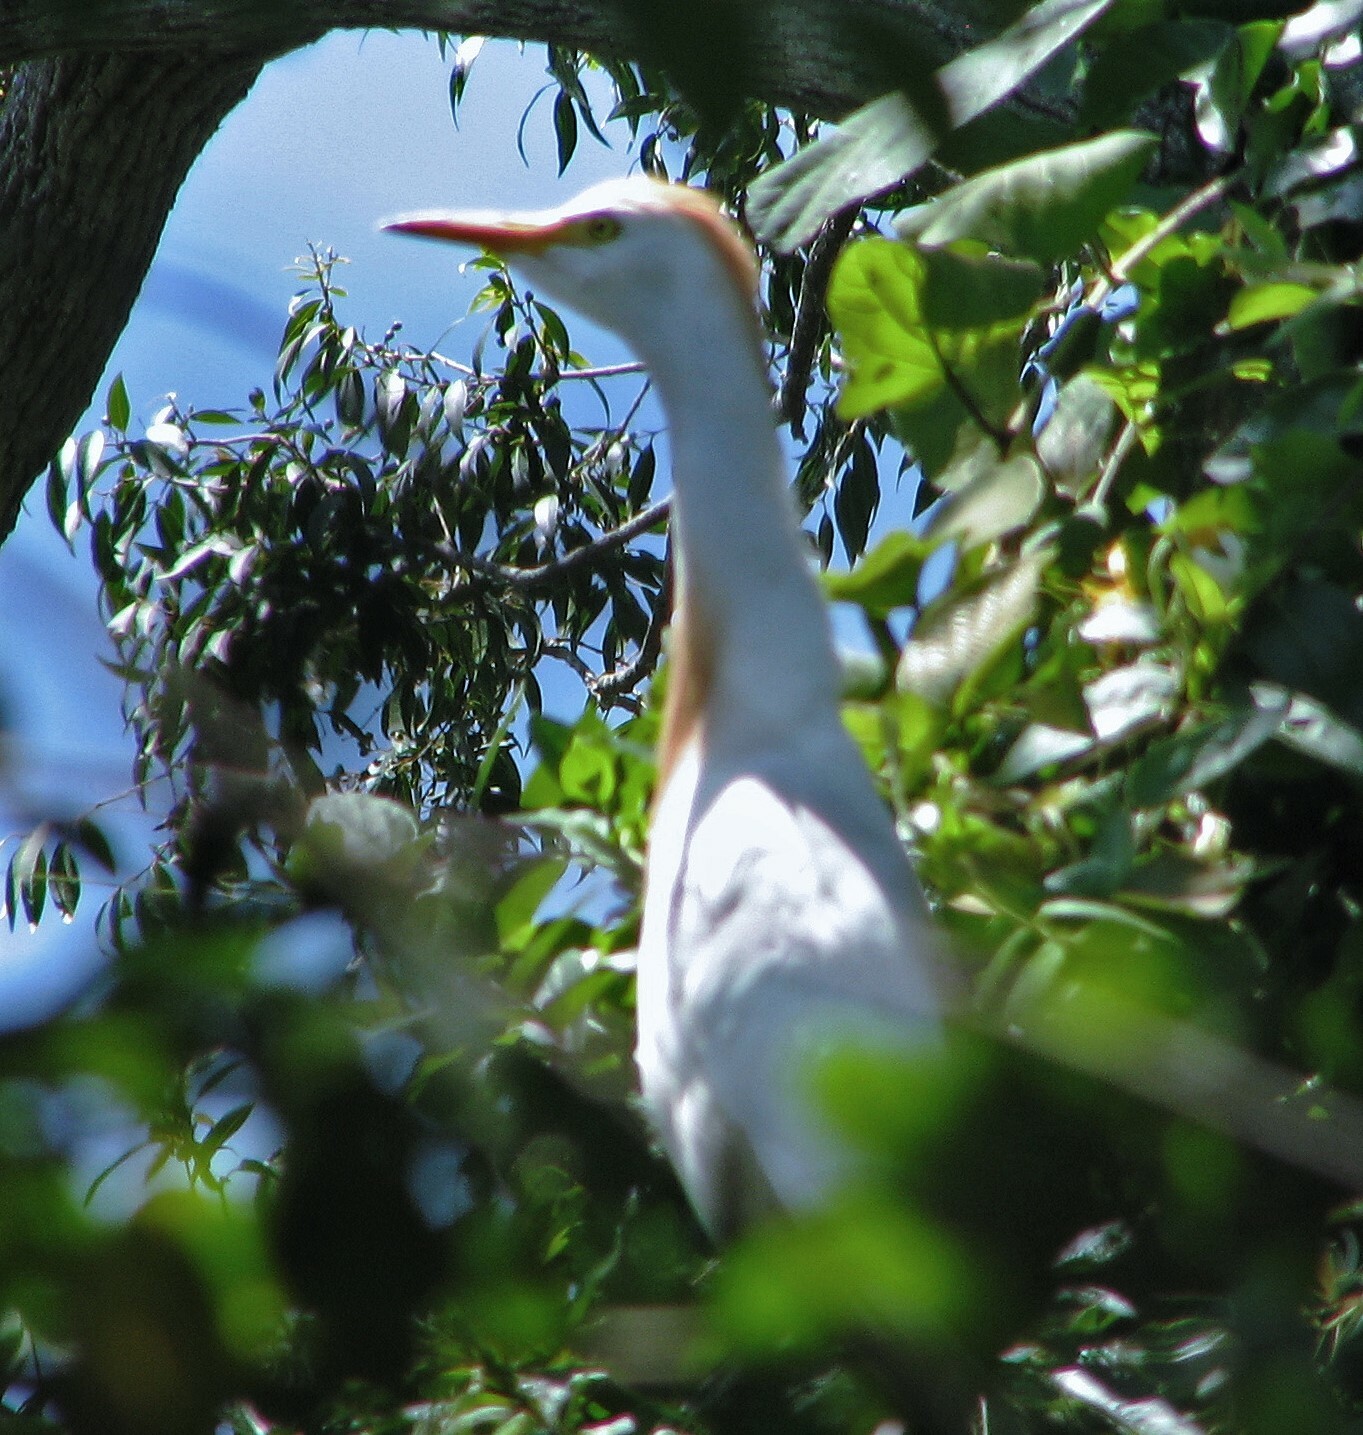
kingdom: Animalia
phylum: Chordata
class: Aves
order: Pelecaniformes
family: Ardeidae
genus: Bubulcus
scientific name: Bubulcus ibis
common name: Cattle egret
